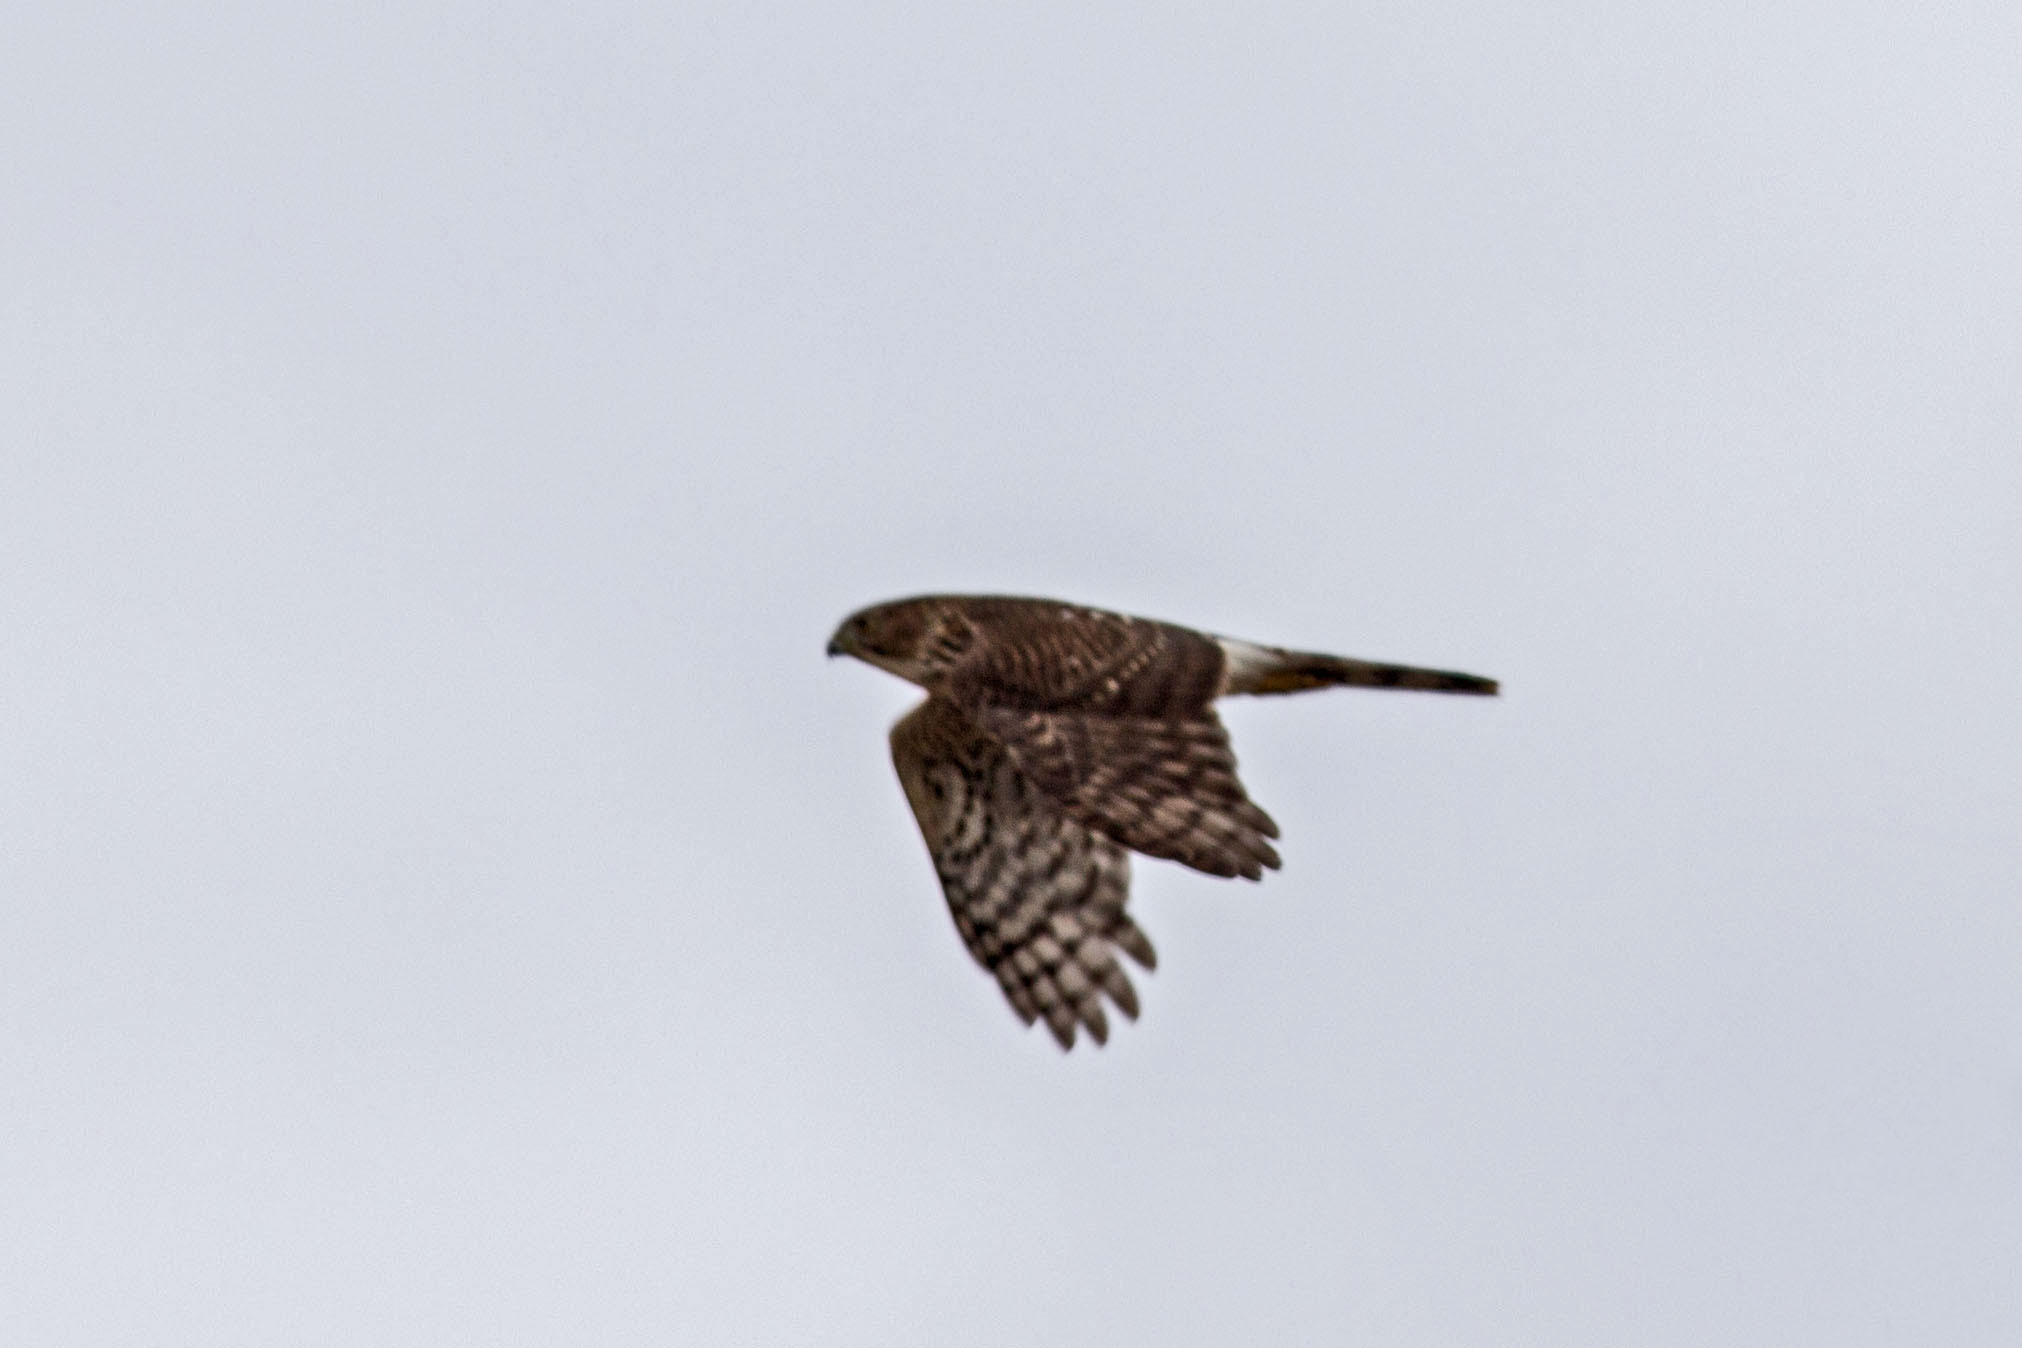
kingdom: Animalia
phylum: Chordata
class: Aves
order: Accipitriformes
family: Accipitridae
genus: Accipiter
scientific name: Accipiter cooperii
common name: Cooper's hawk
